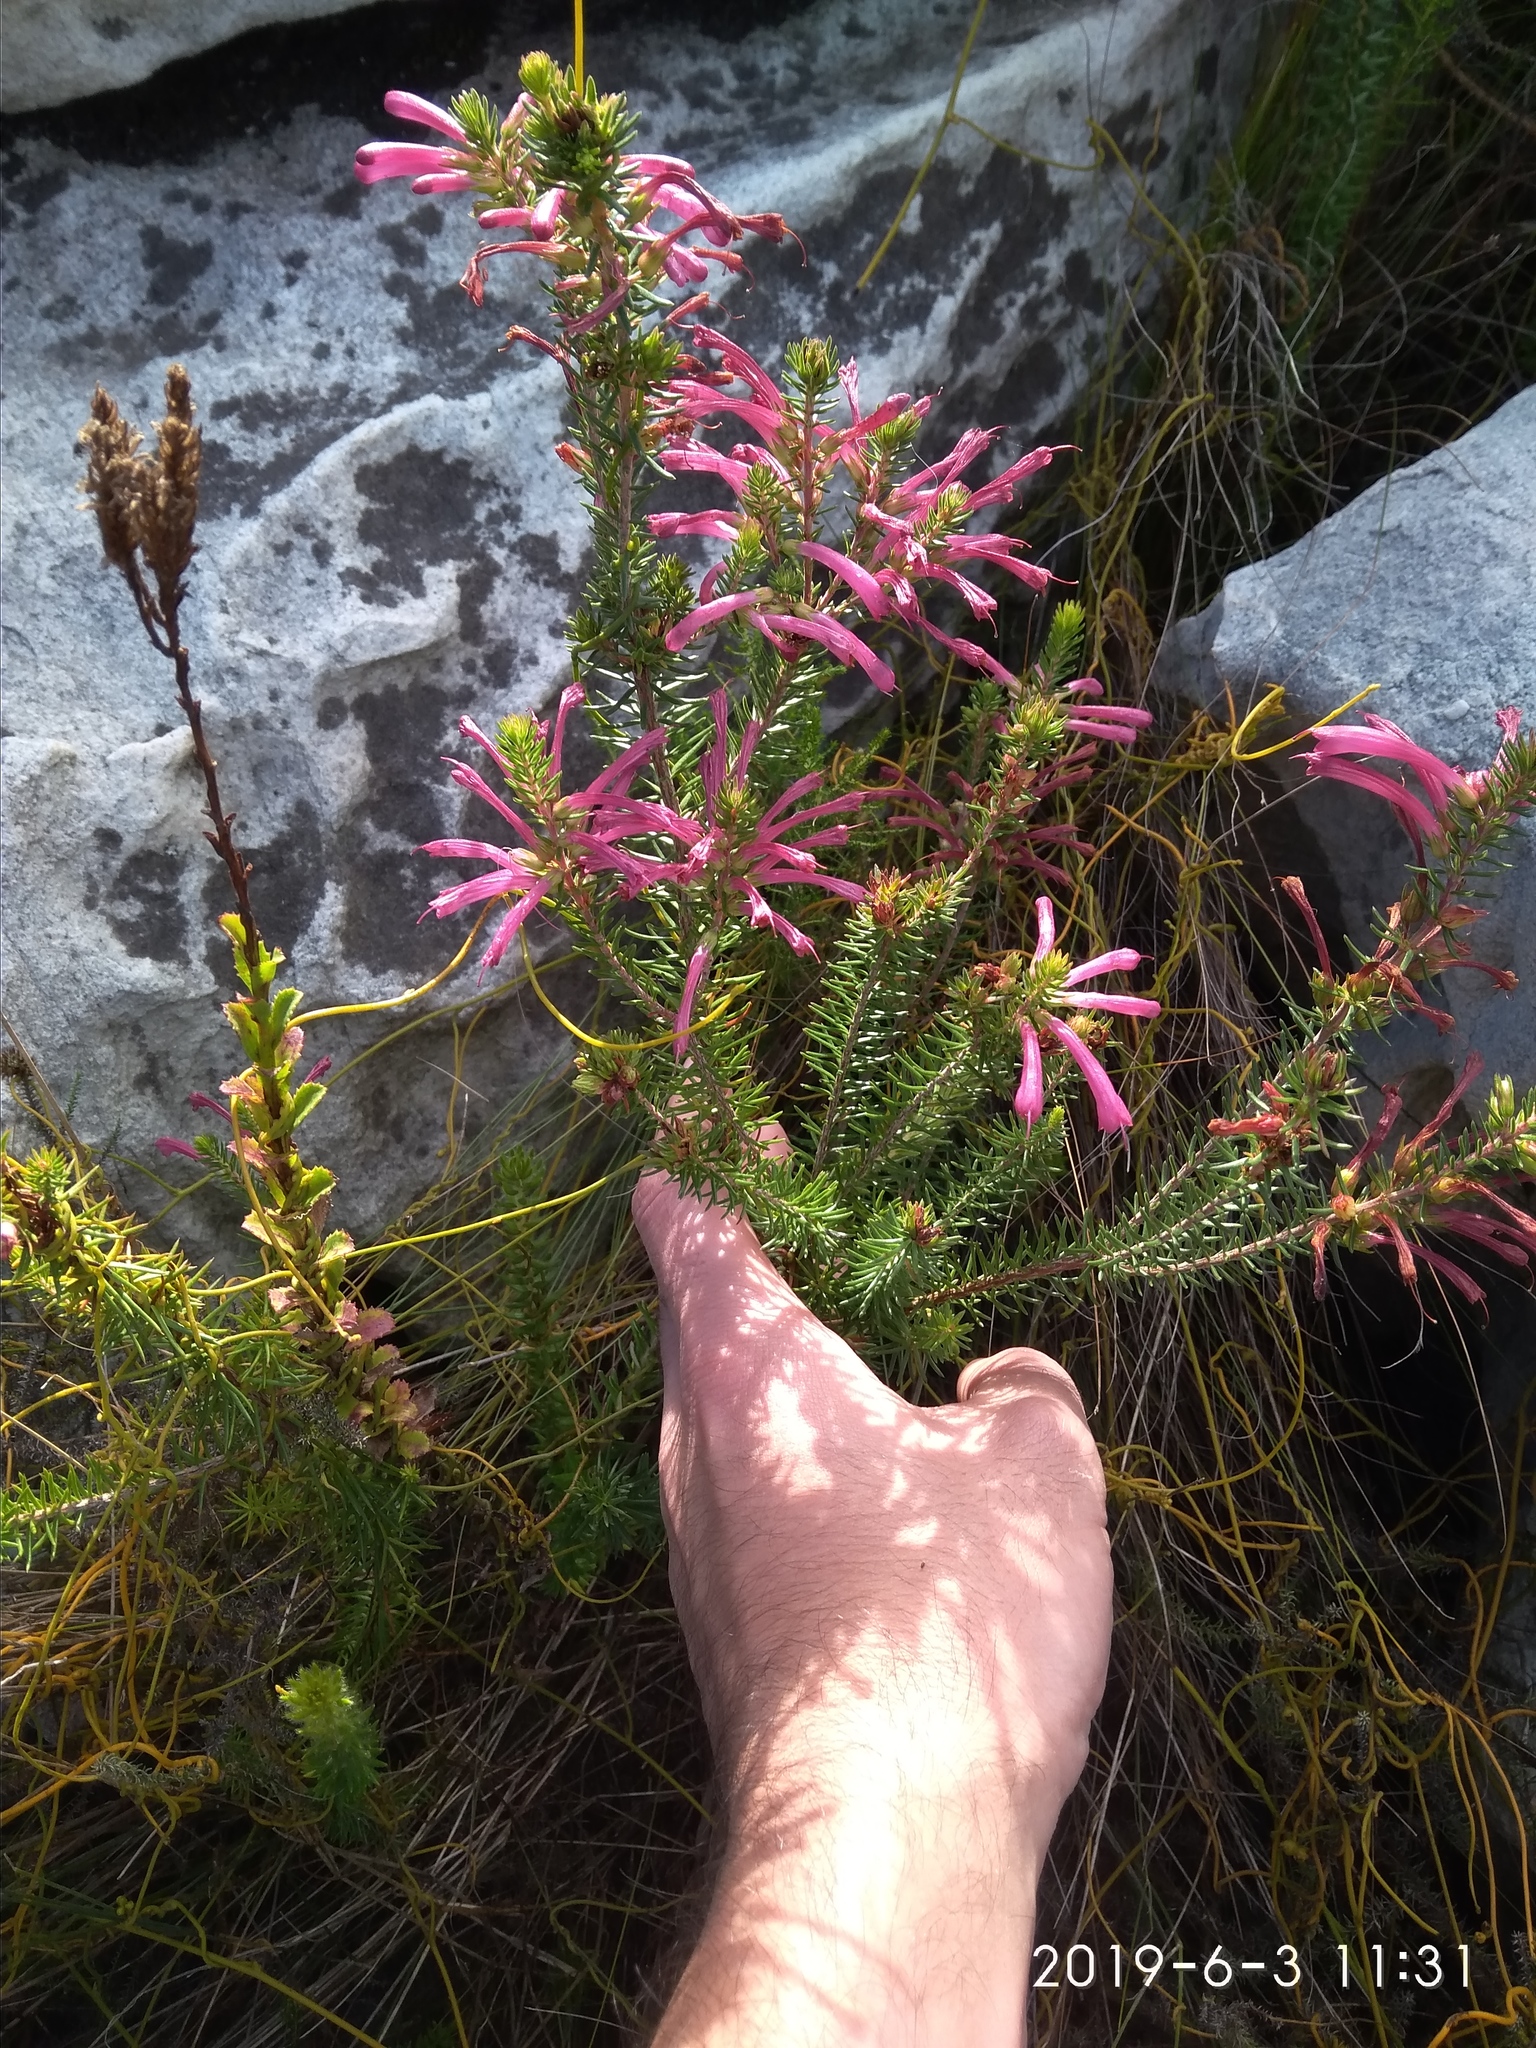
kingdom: Plantae
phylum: Tracheophyta
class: Magnoliopsida
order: Ericales
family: Ericaceae
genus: Erica
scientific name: Erica abietina
